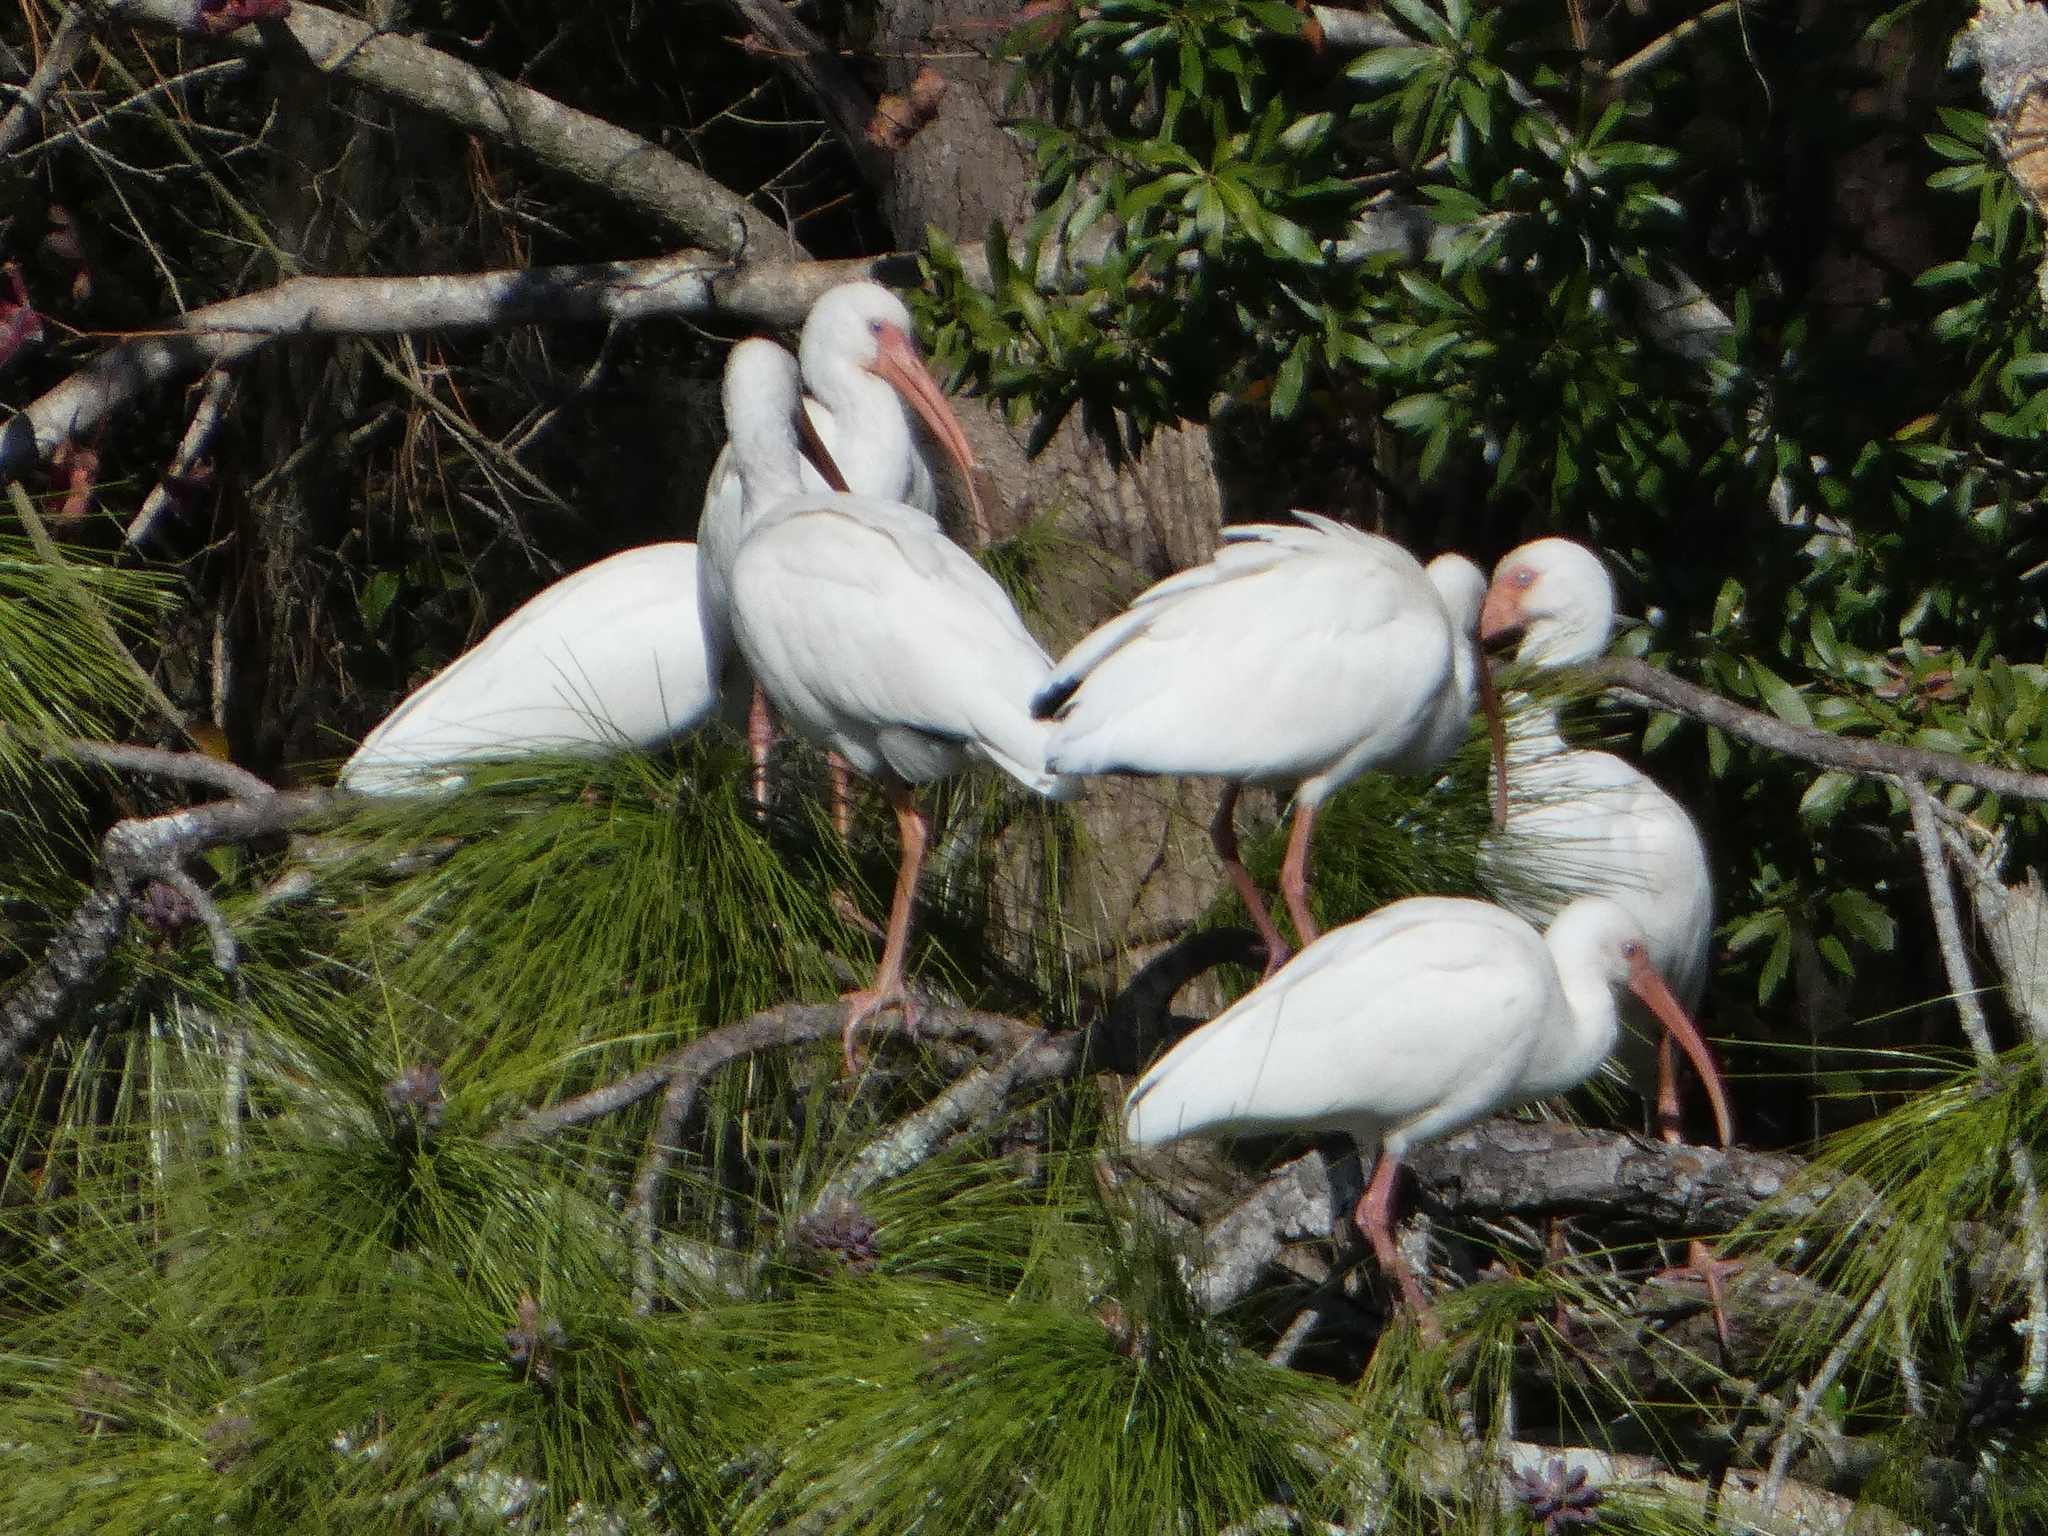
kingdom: Animalia
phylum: Chordata
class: Aves
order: Pelecaniformes
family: Threskiornithidae
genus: Eudocimus
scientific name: Eudocimus albus
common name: White ibis
